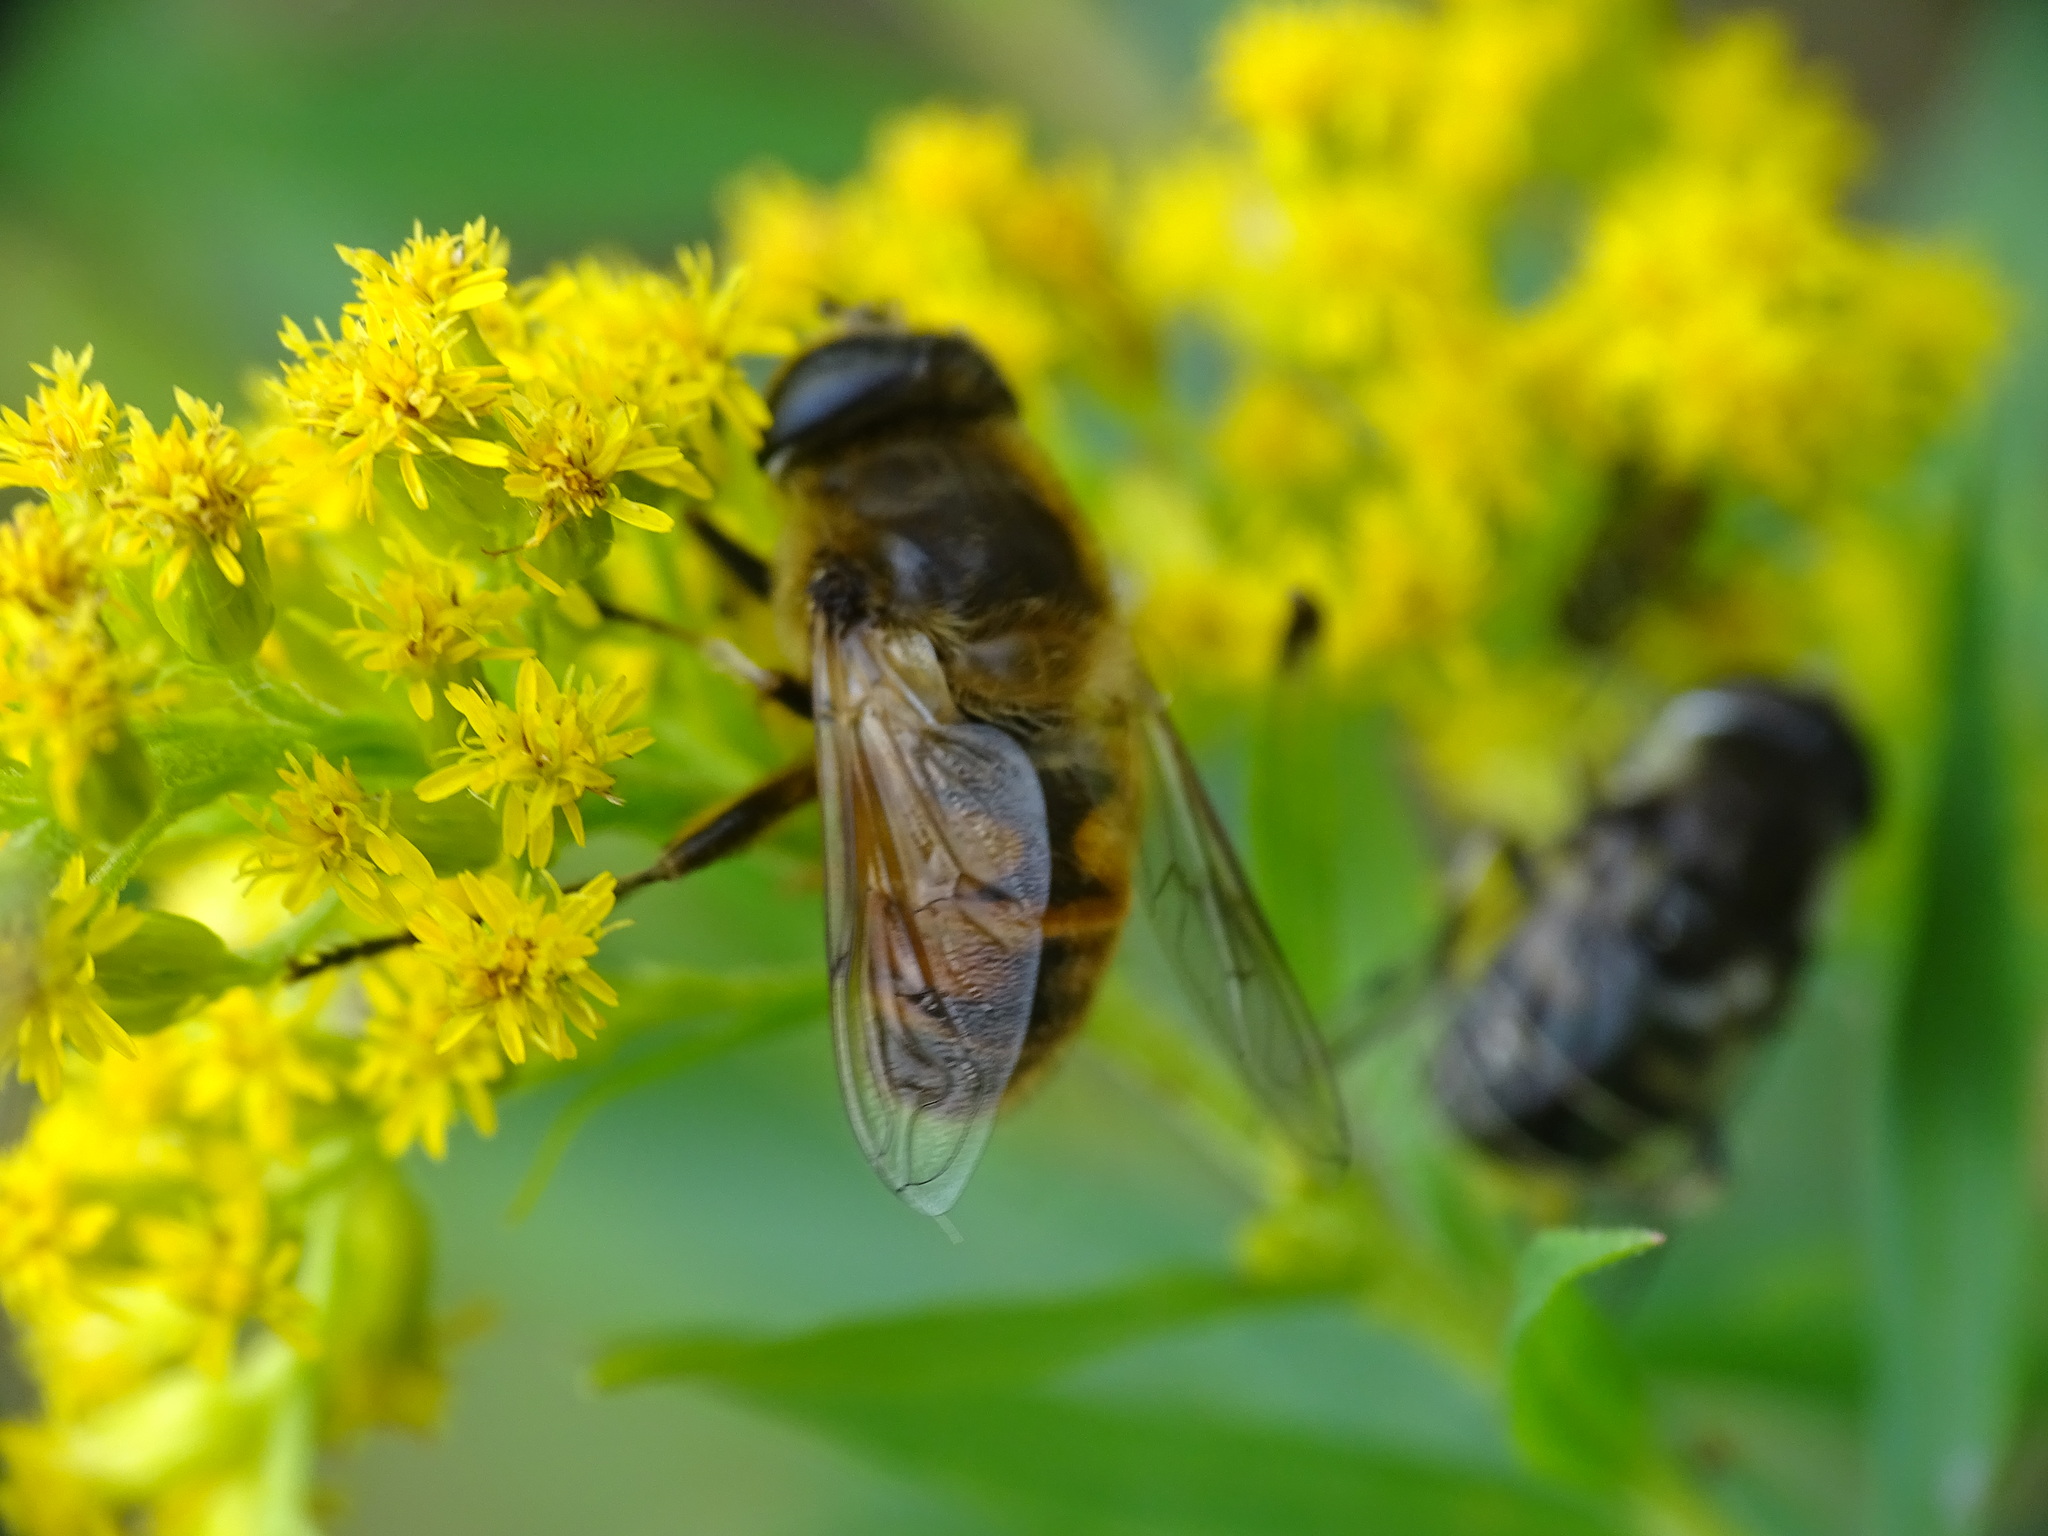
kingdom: Animalia
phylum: Arthropoda
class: Insecta
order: Diptera
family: Syrphidae
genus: Eristalis
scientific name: Eristalis tenax
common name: Drone fly
